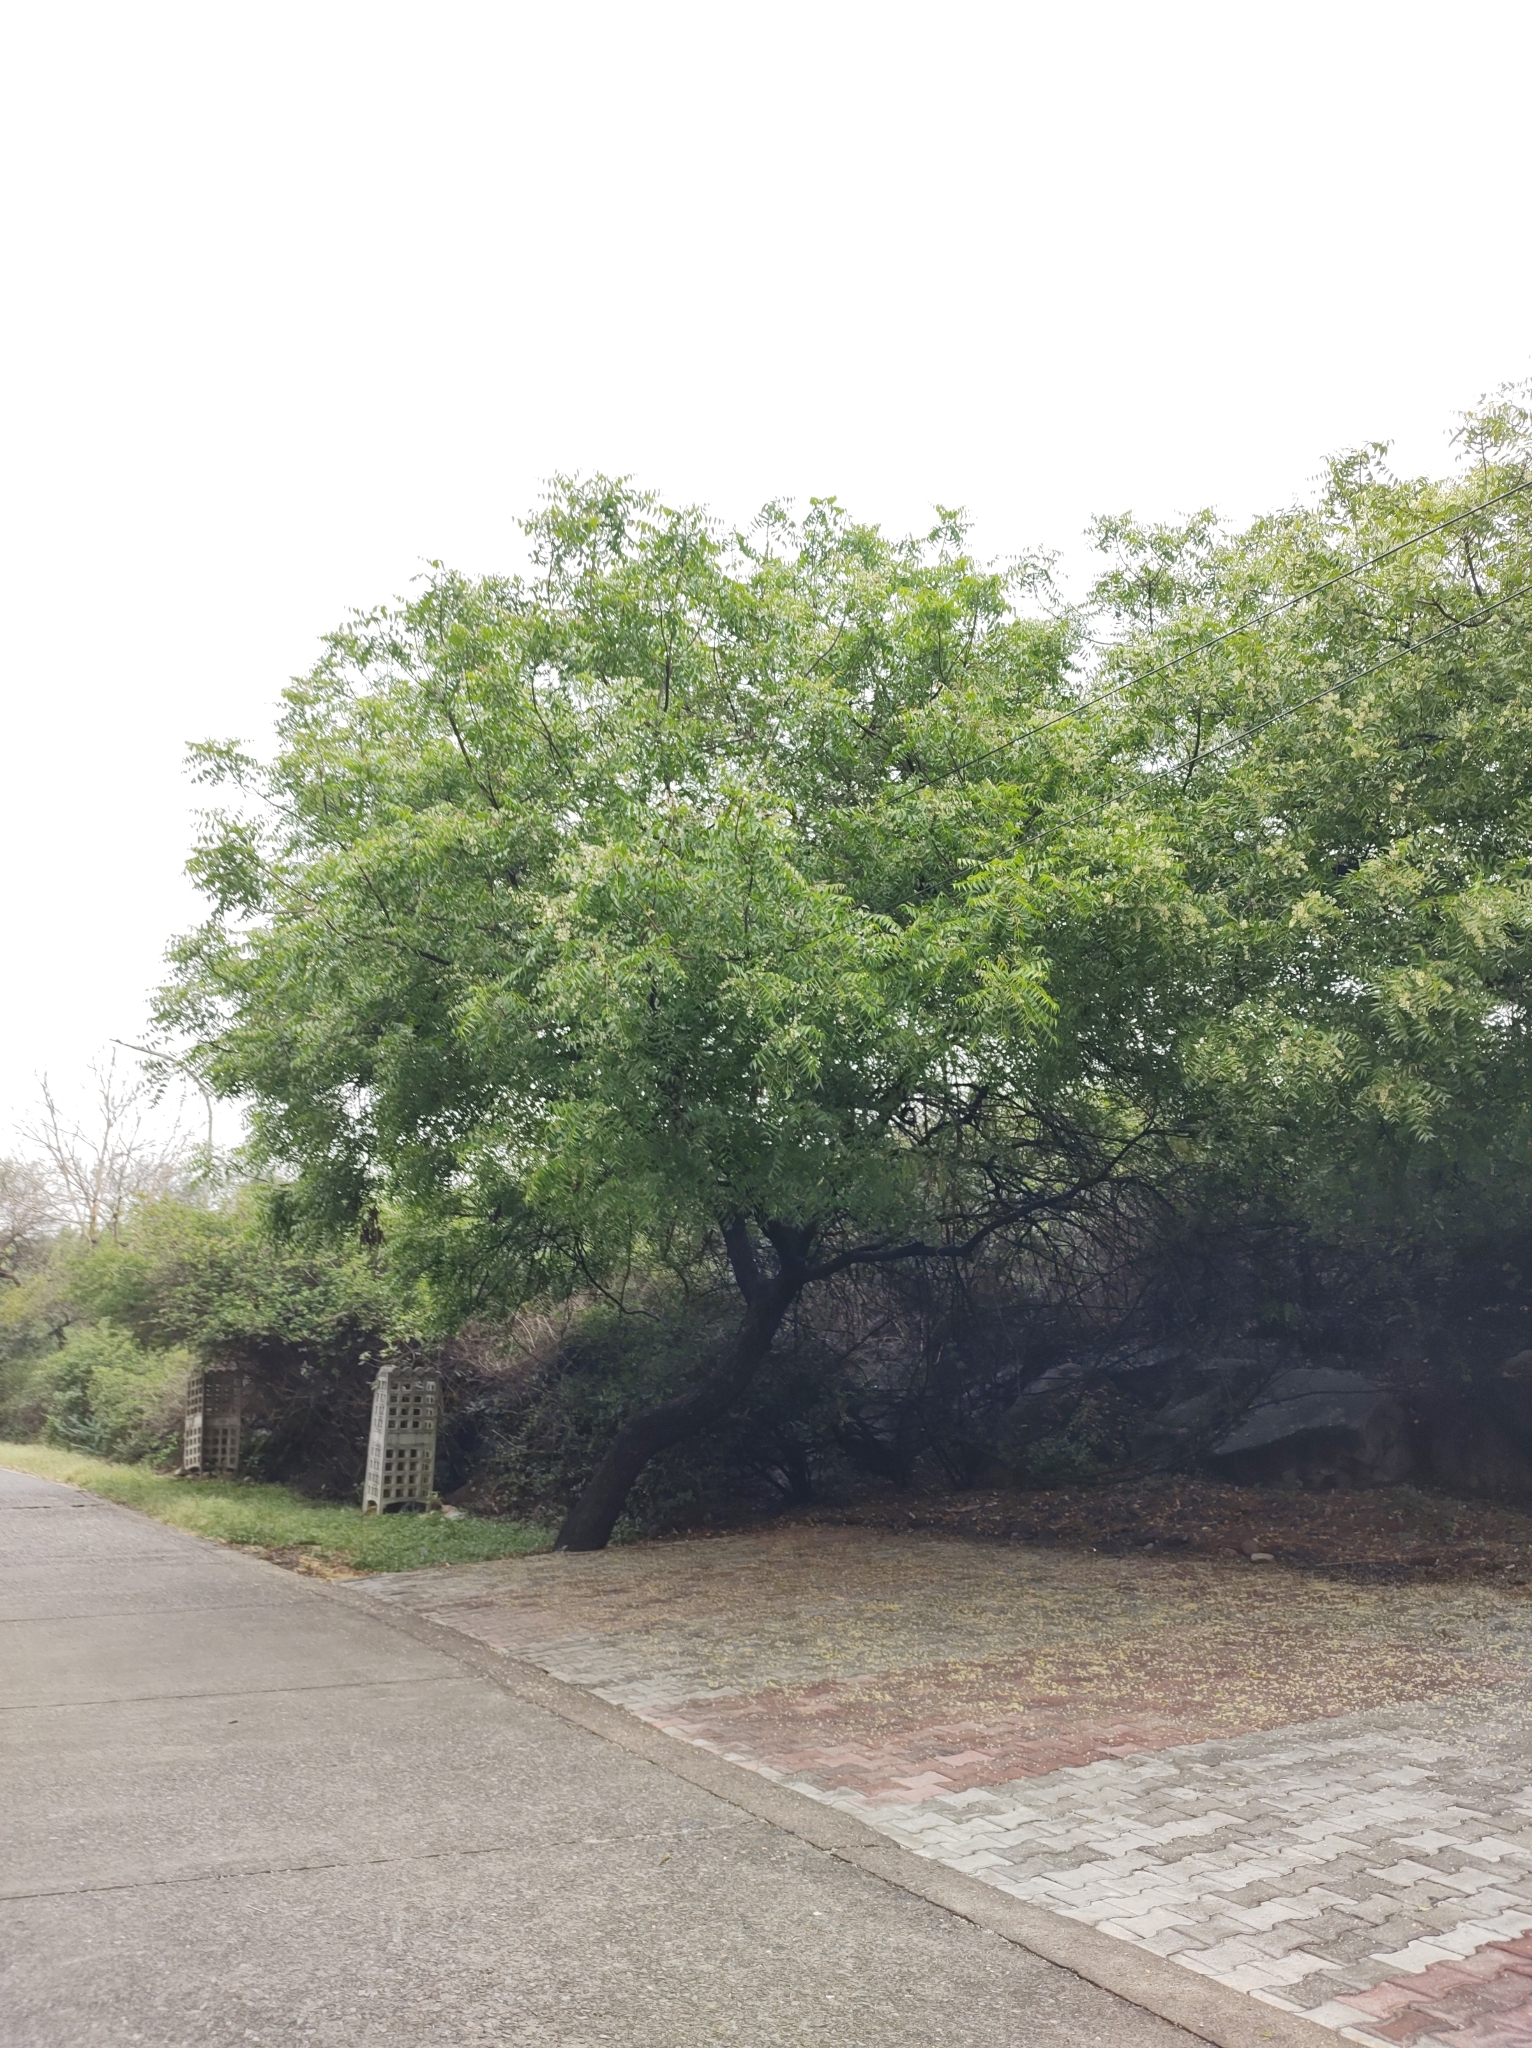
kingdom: Plantae
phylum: Tracheophyta
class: Magnoliopsida
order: Sapindales
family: Meliaceae
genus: Azadirachta
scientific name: Azadirachta indica
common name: Neem
